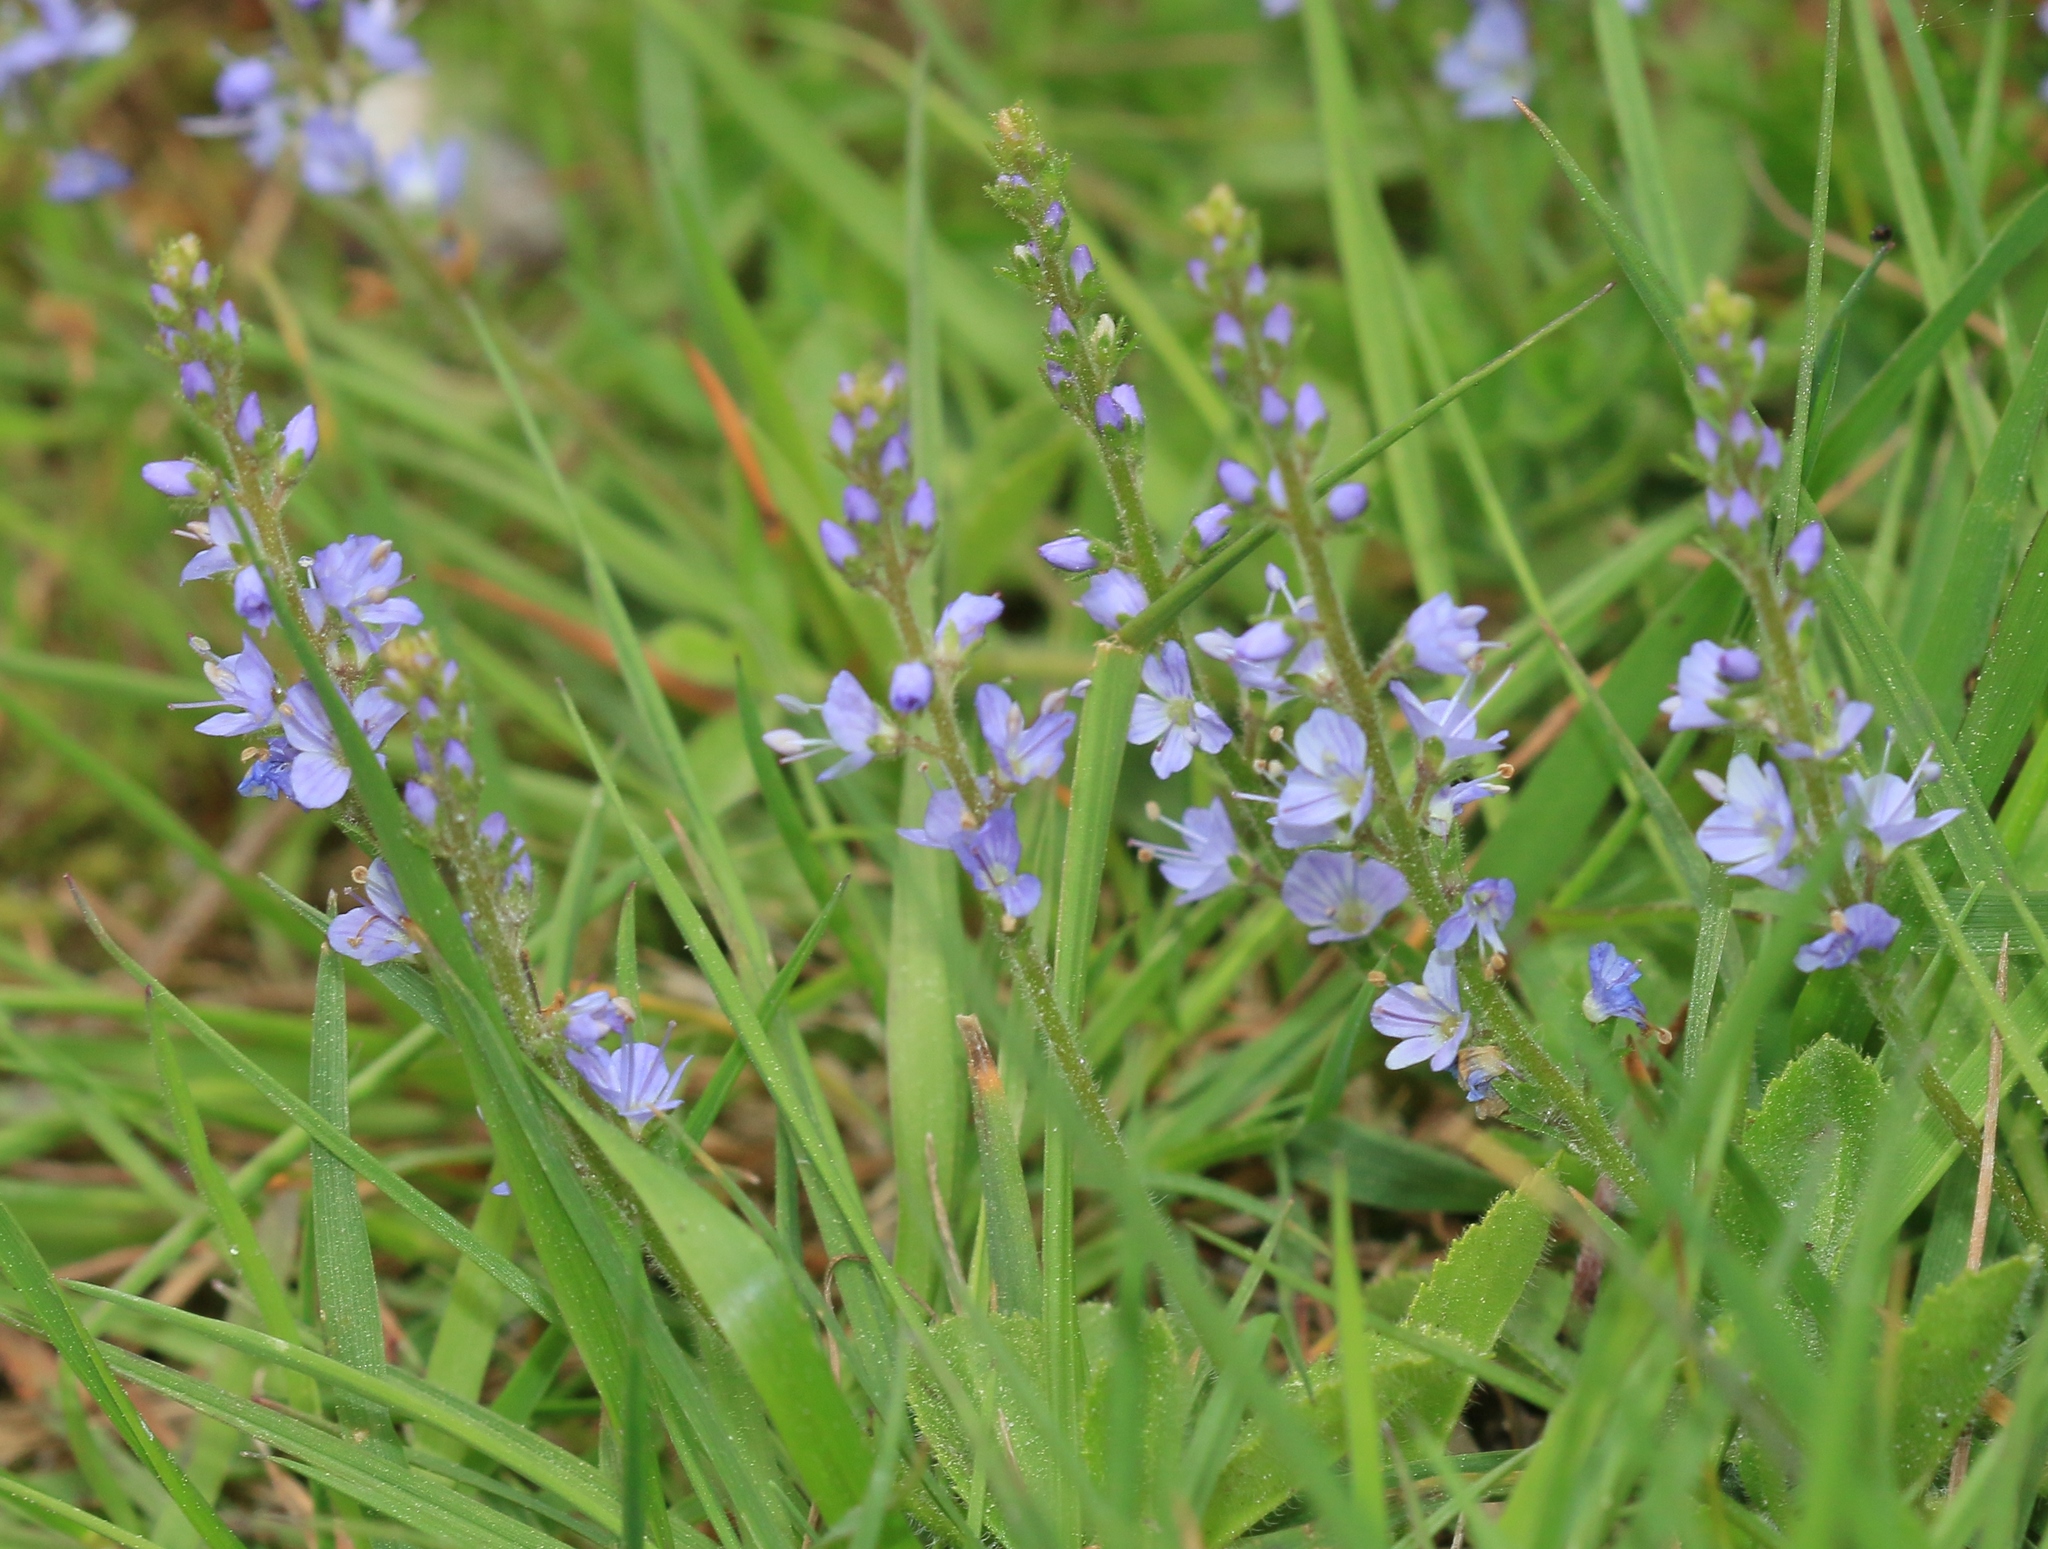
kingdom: Plantae
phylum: Tracheophyta
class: Magnoliopsida
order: Lamiales
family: Plantaginaceae
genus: Veronica
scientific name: Veronica officinalis
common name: Common speedwell
